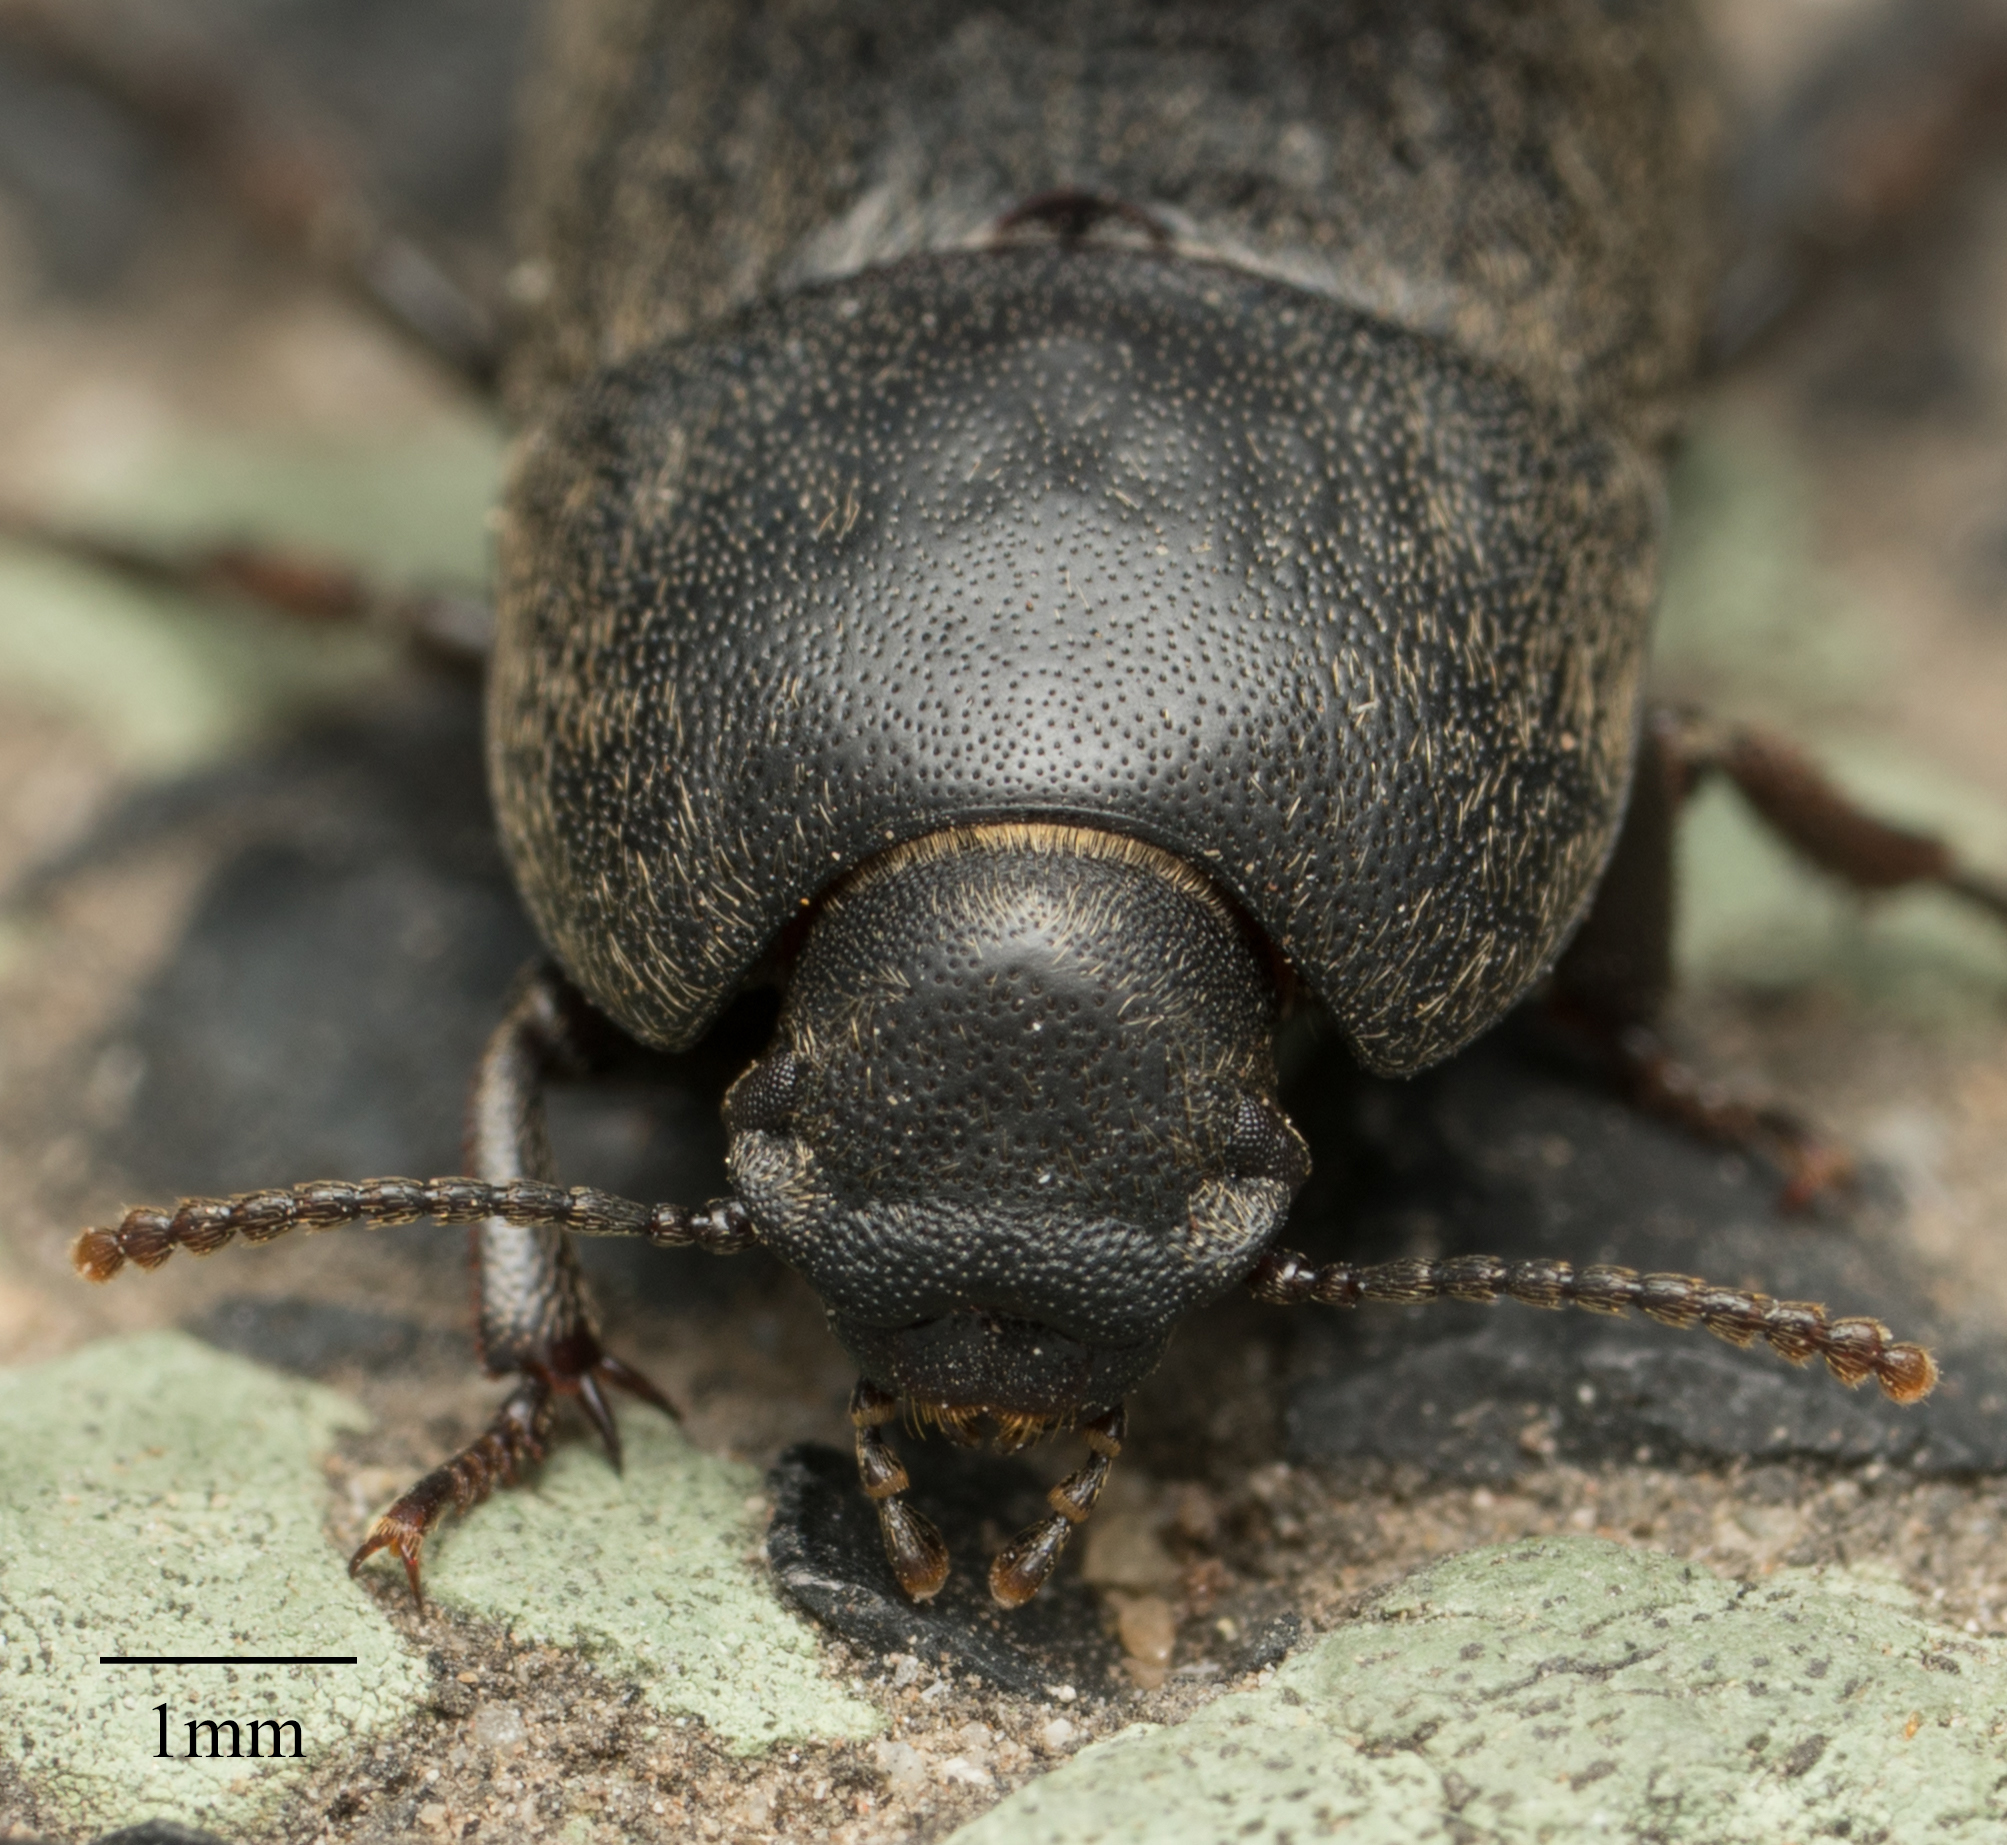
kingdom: Animalia
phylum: Arthropoda
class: Insecta
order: Coleoptera
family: Tenebrionidae
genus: Coniontis
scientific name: Coniontis
